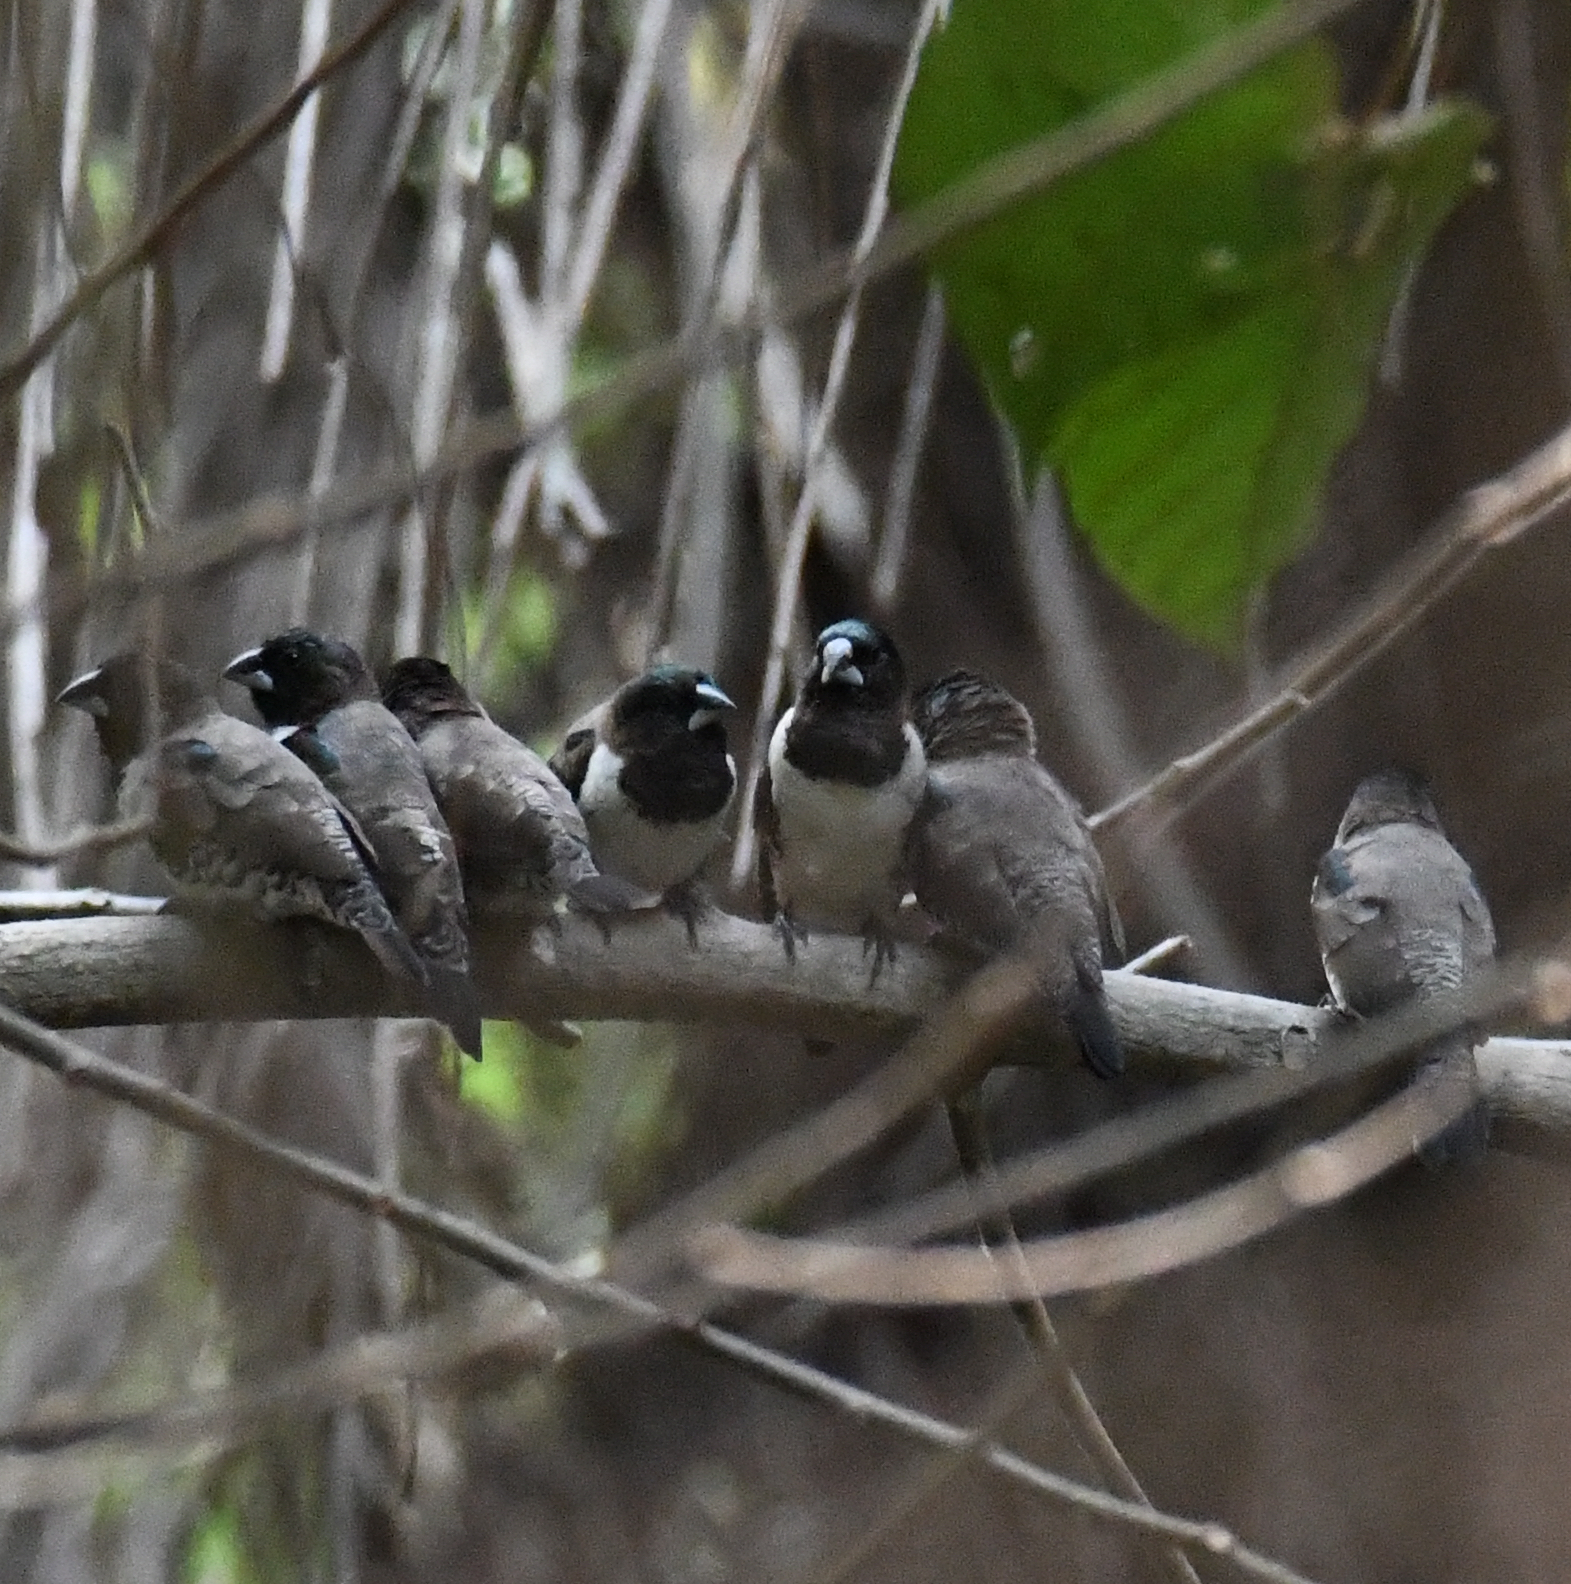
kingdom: Animalia
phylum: Chordata
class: Aves
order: Passeriformes
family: Estrildidae
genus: Lonchura
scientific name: Lonchura cucullata
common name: Bronze mannikin
